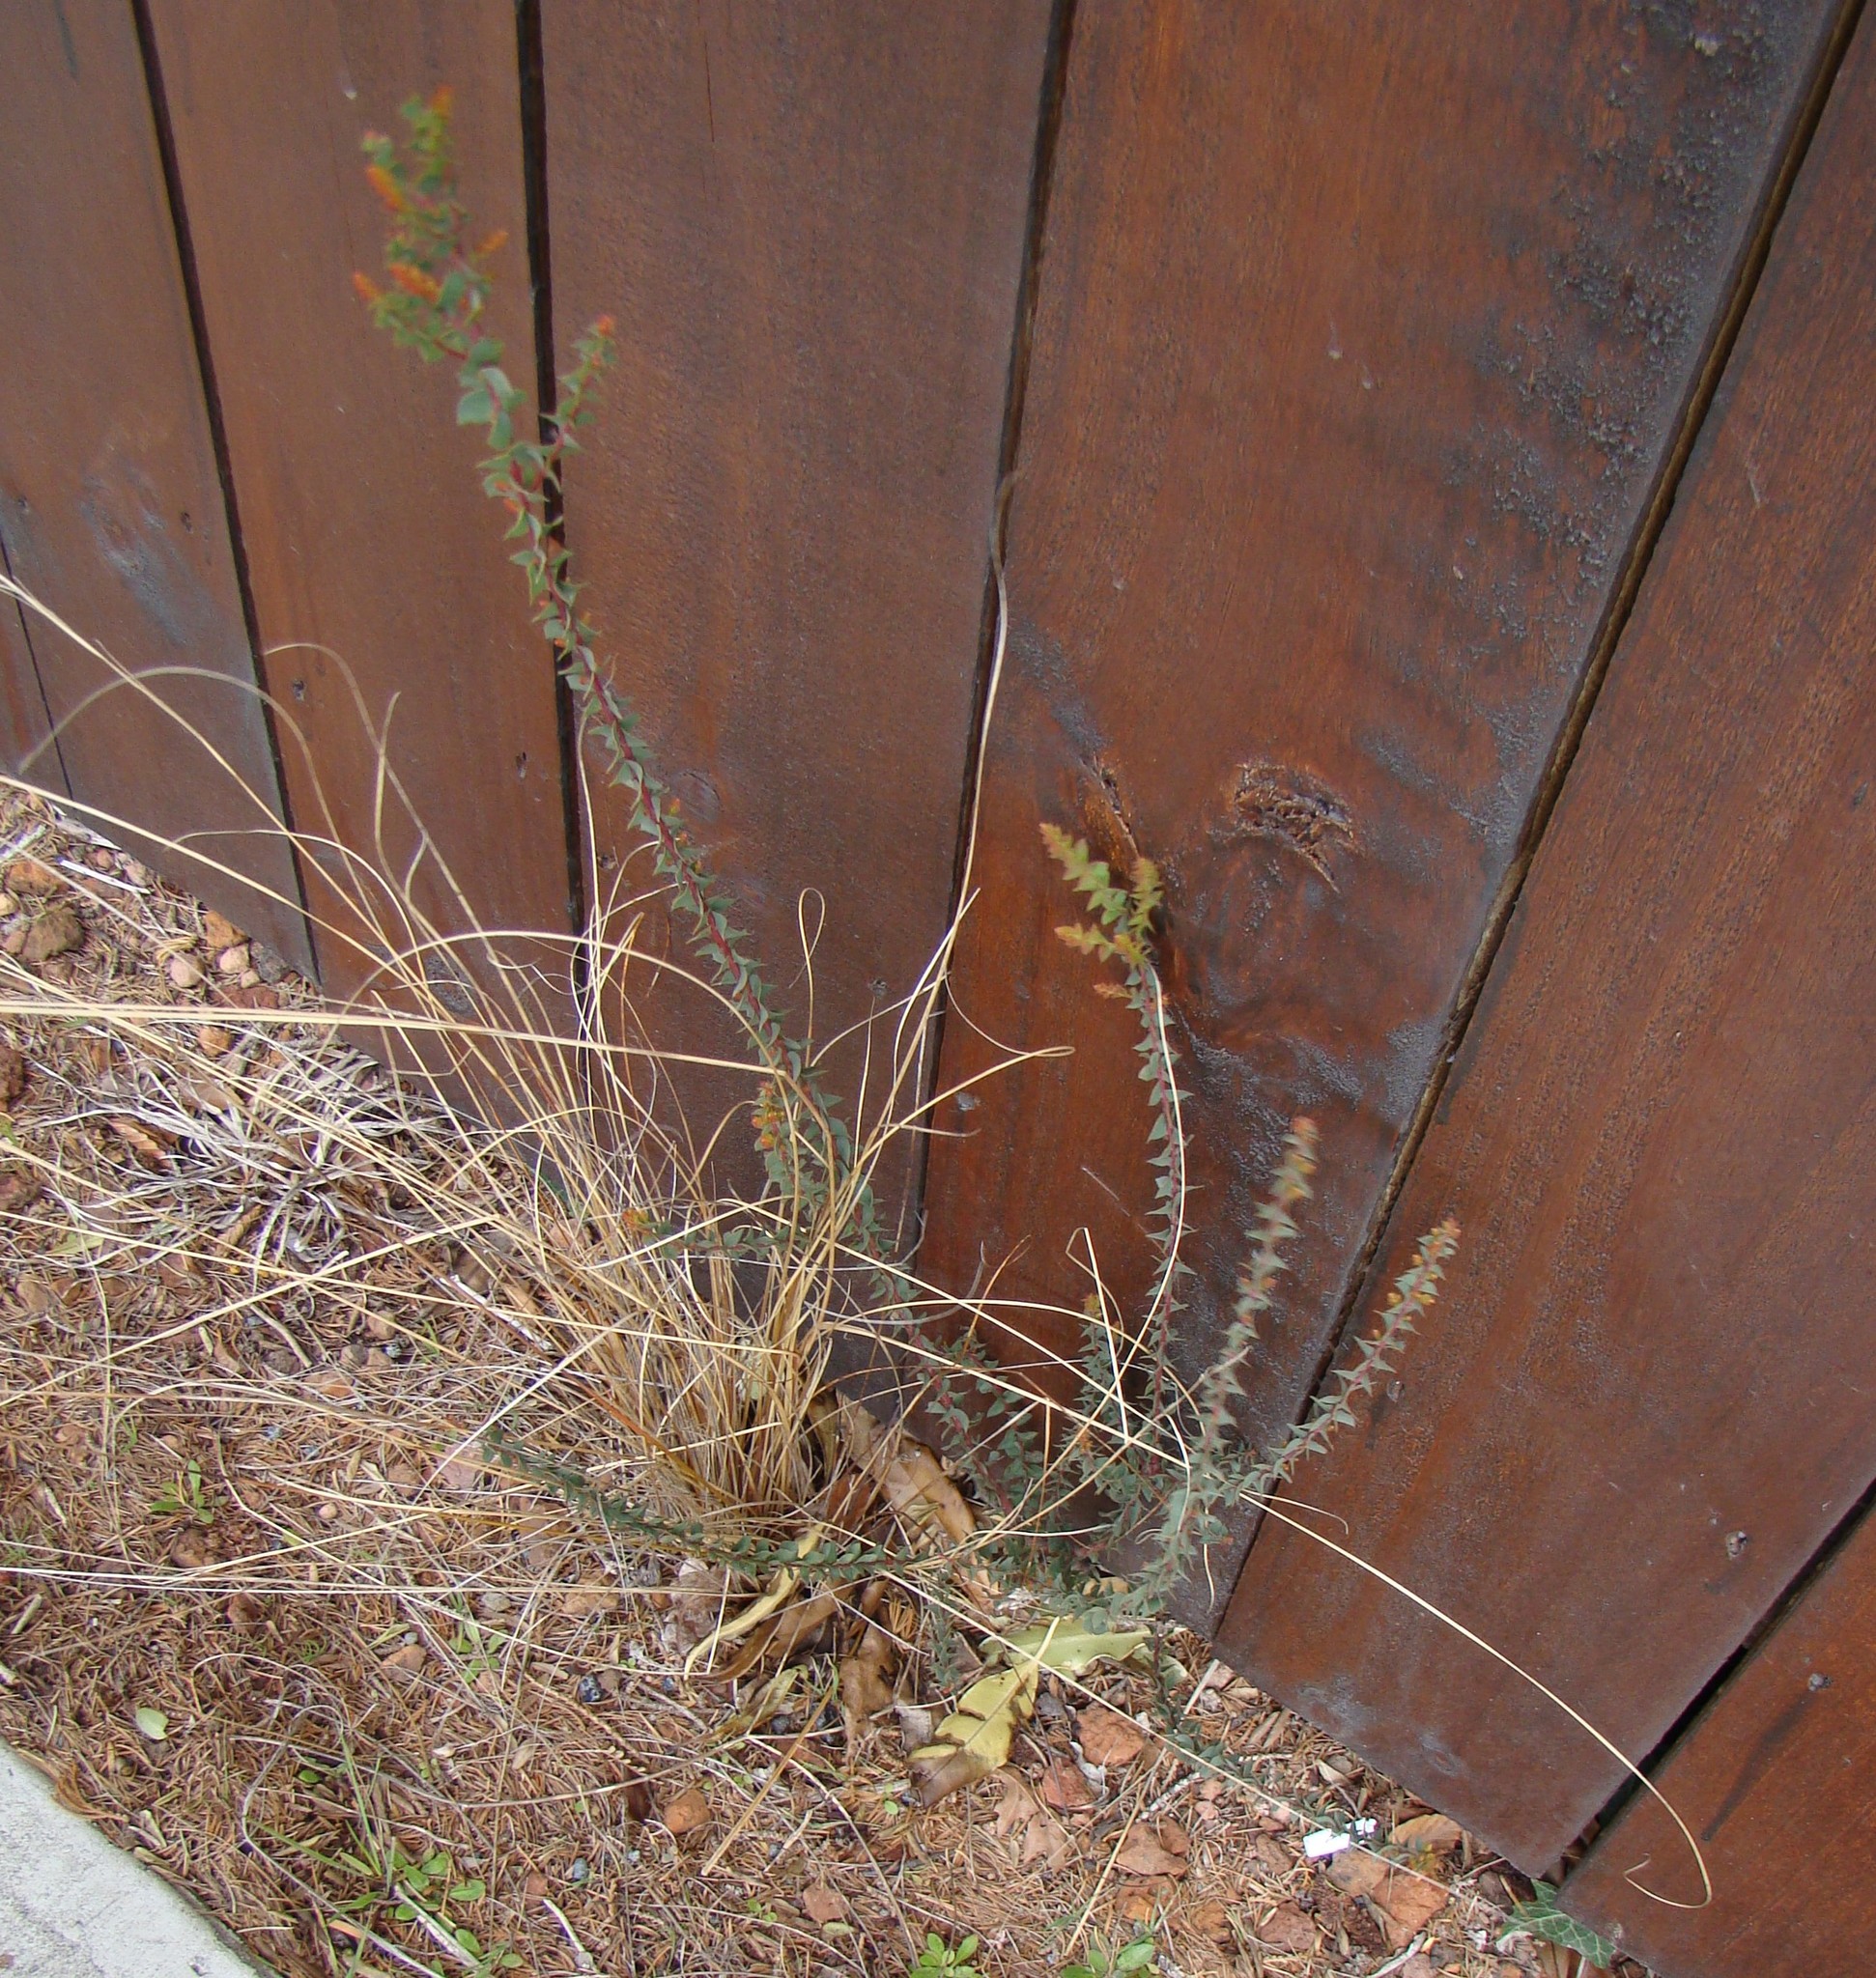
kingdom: Plantae
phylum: Tracheophyta
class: Magnoliopsida
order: Fabales
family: Fabaceae
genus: Acacia
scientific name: Acacia pravissima
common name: Tumut wattle
